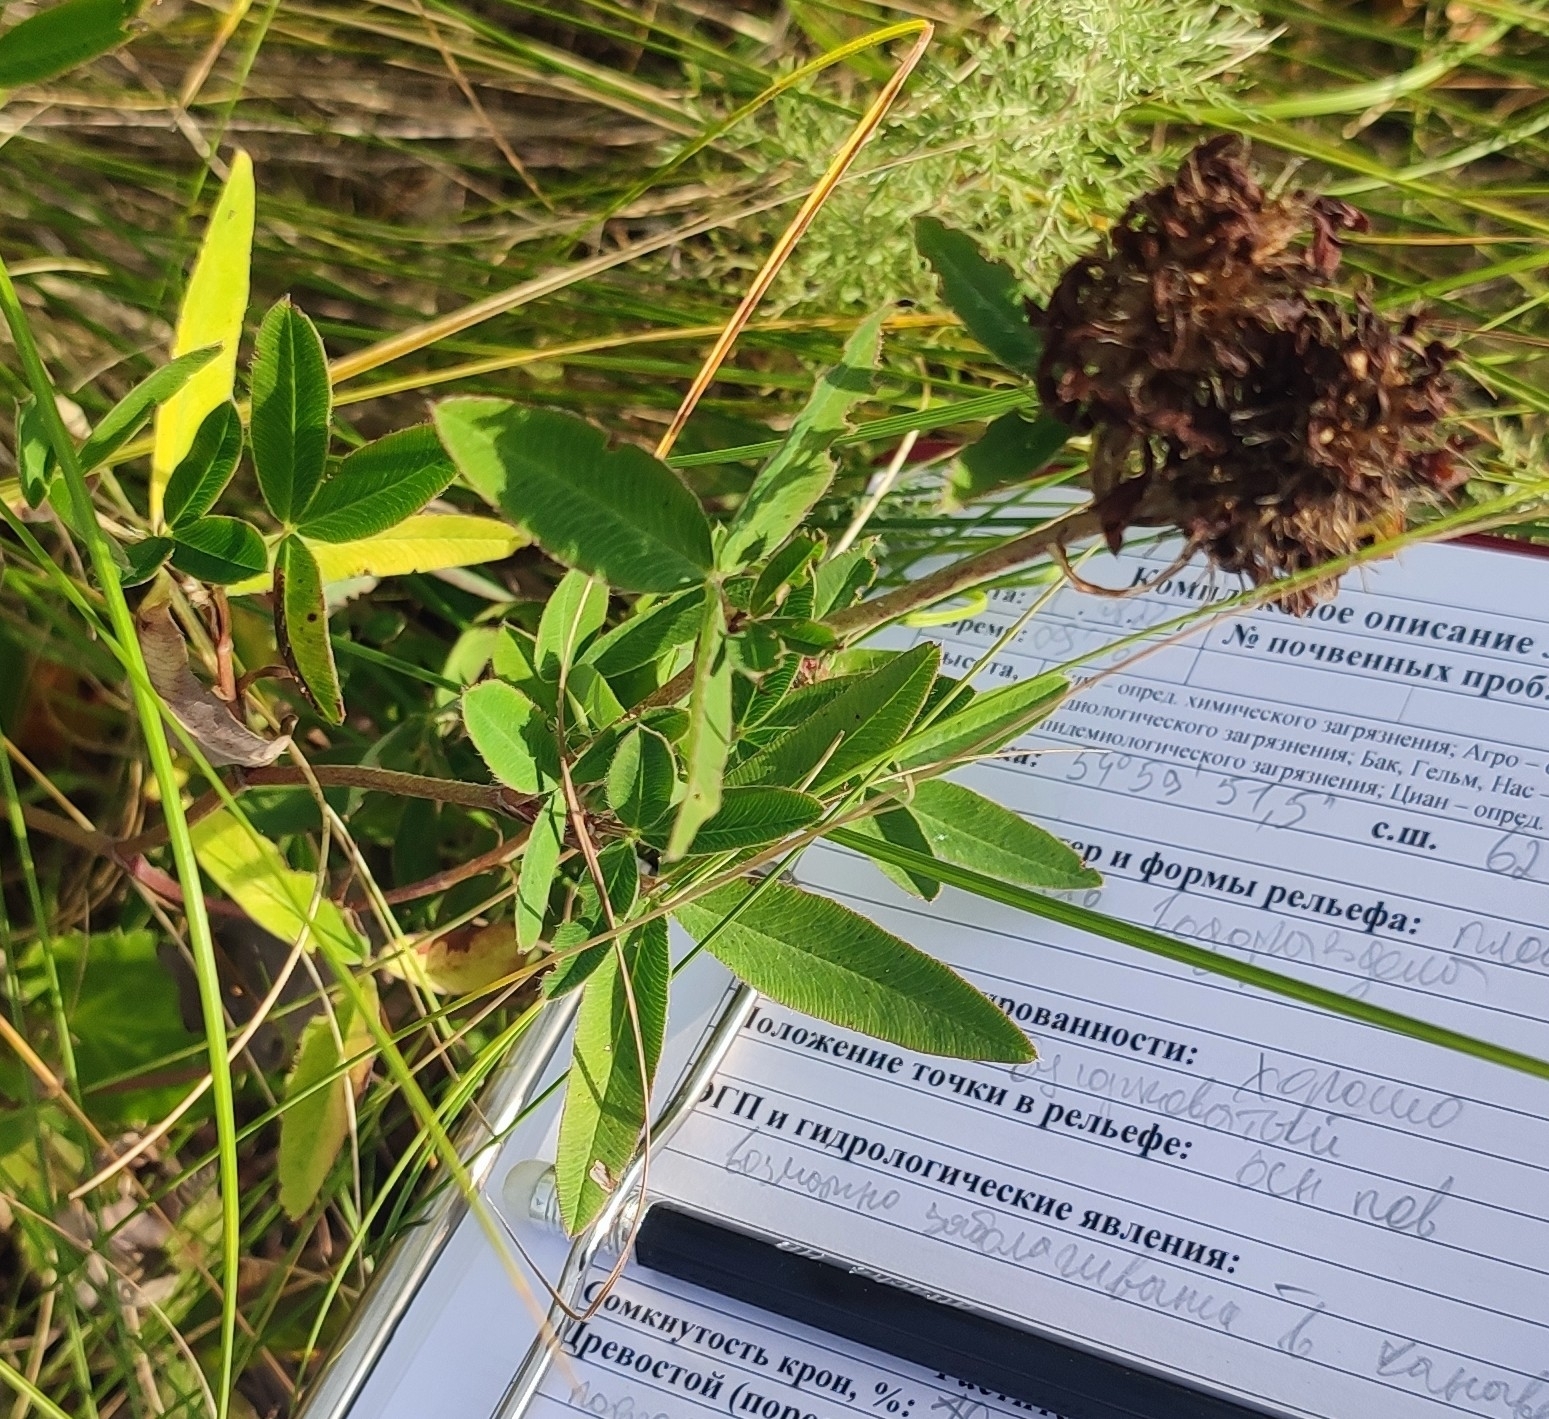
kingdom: Plantae
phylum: Tracheophyta
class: Magnoliopsida
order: Fabales
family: Fabaceae
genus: Trifolium
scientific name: Trifolium medium
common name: Zigzag clover
